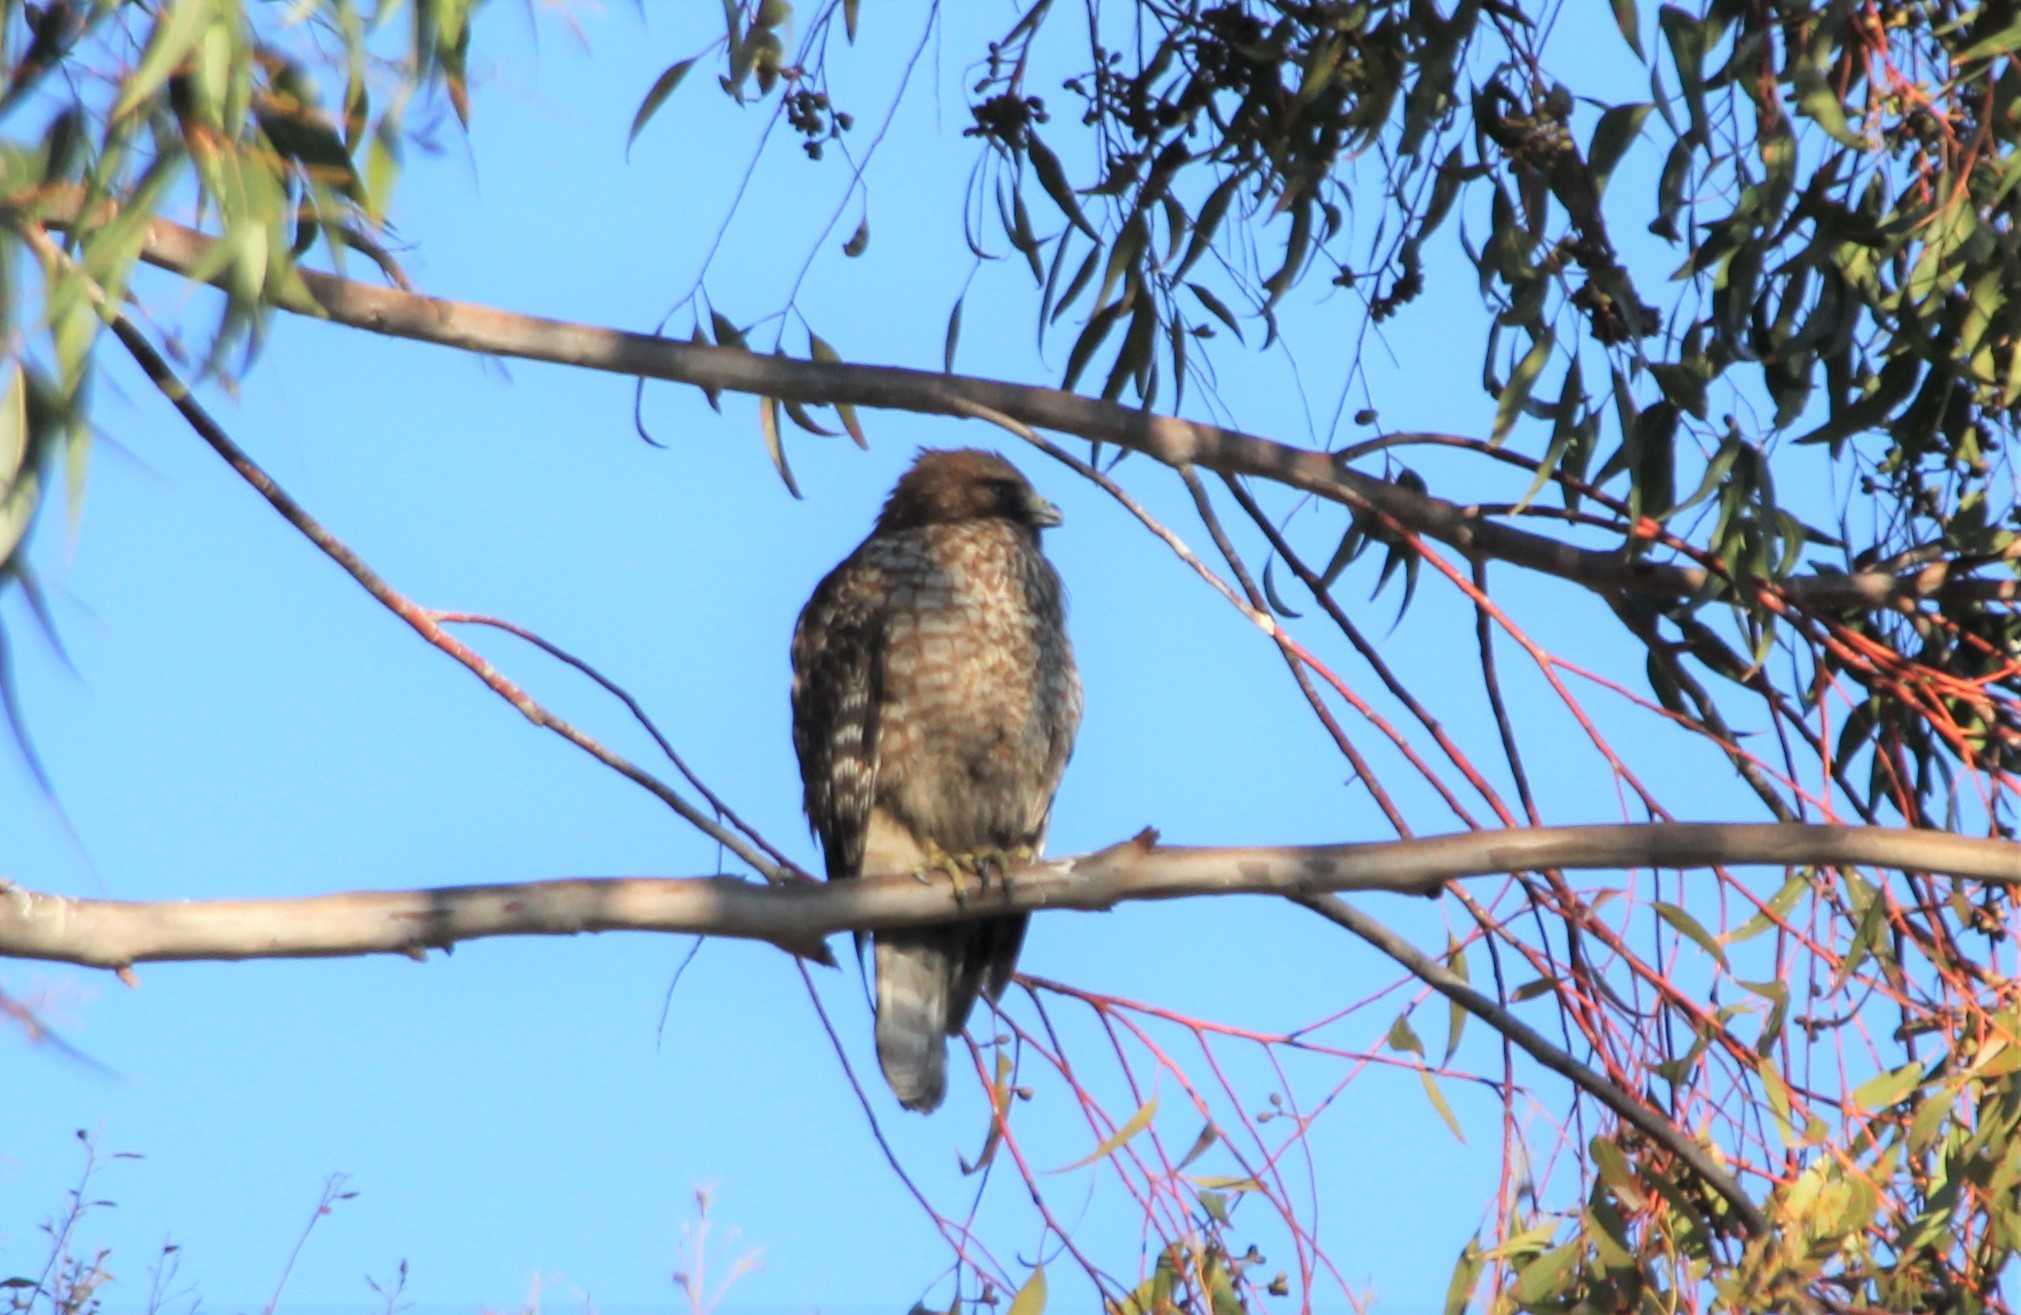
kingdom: Animalia
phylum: Chordata
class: Aves
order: Accipitriformes
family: Accipitridae
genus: Buteo
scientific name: Buteo lineatus
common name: Red-shouldered hawk
